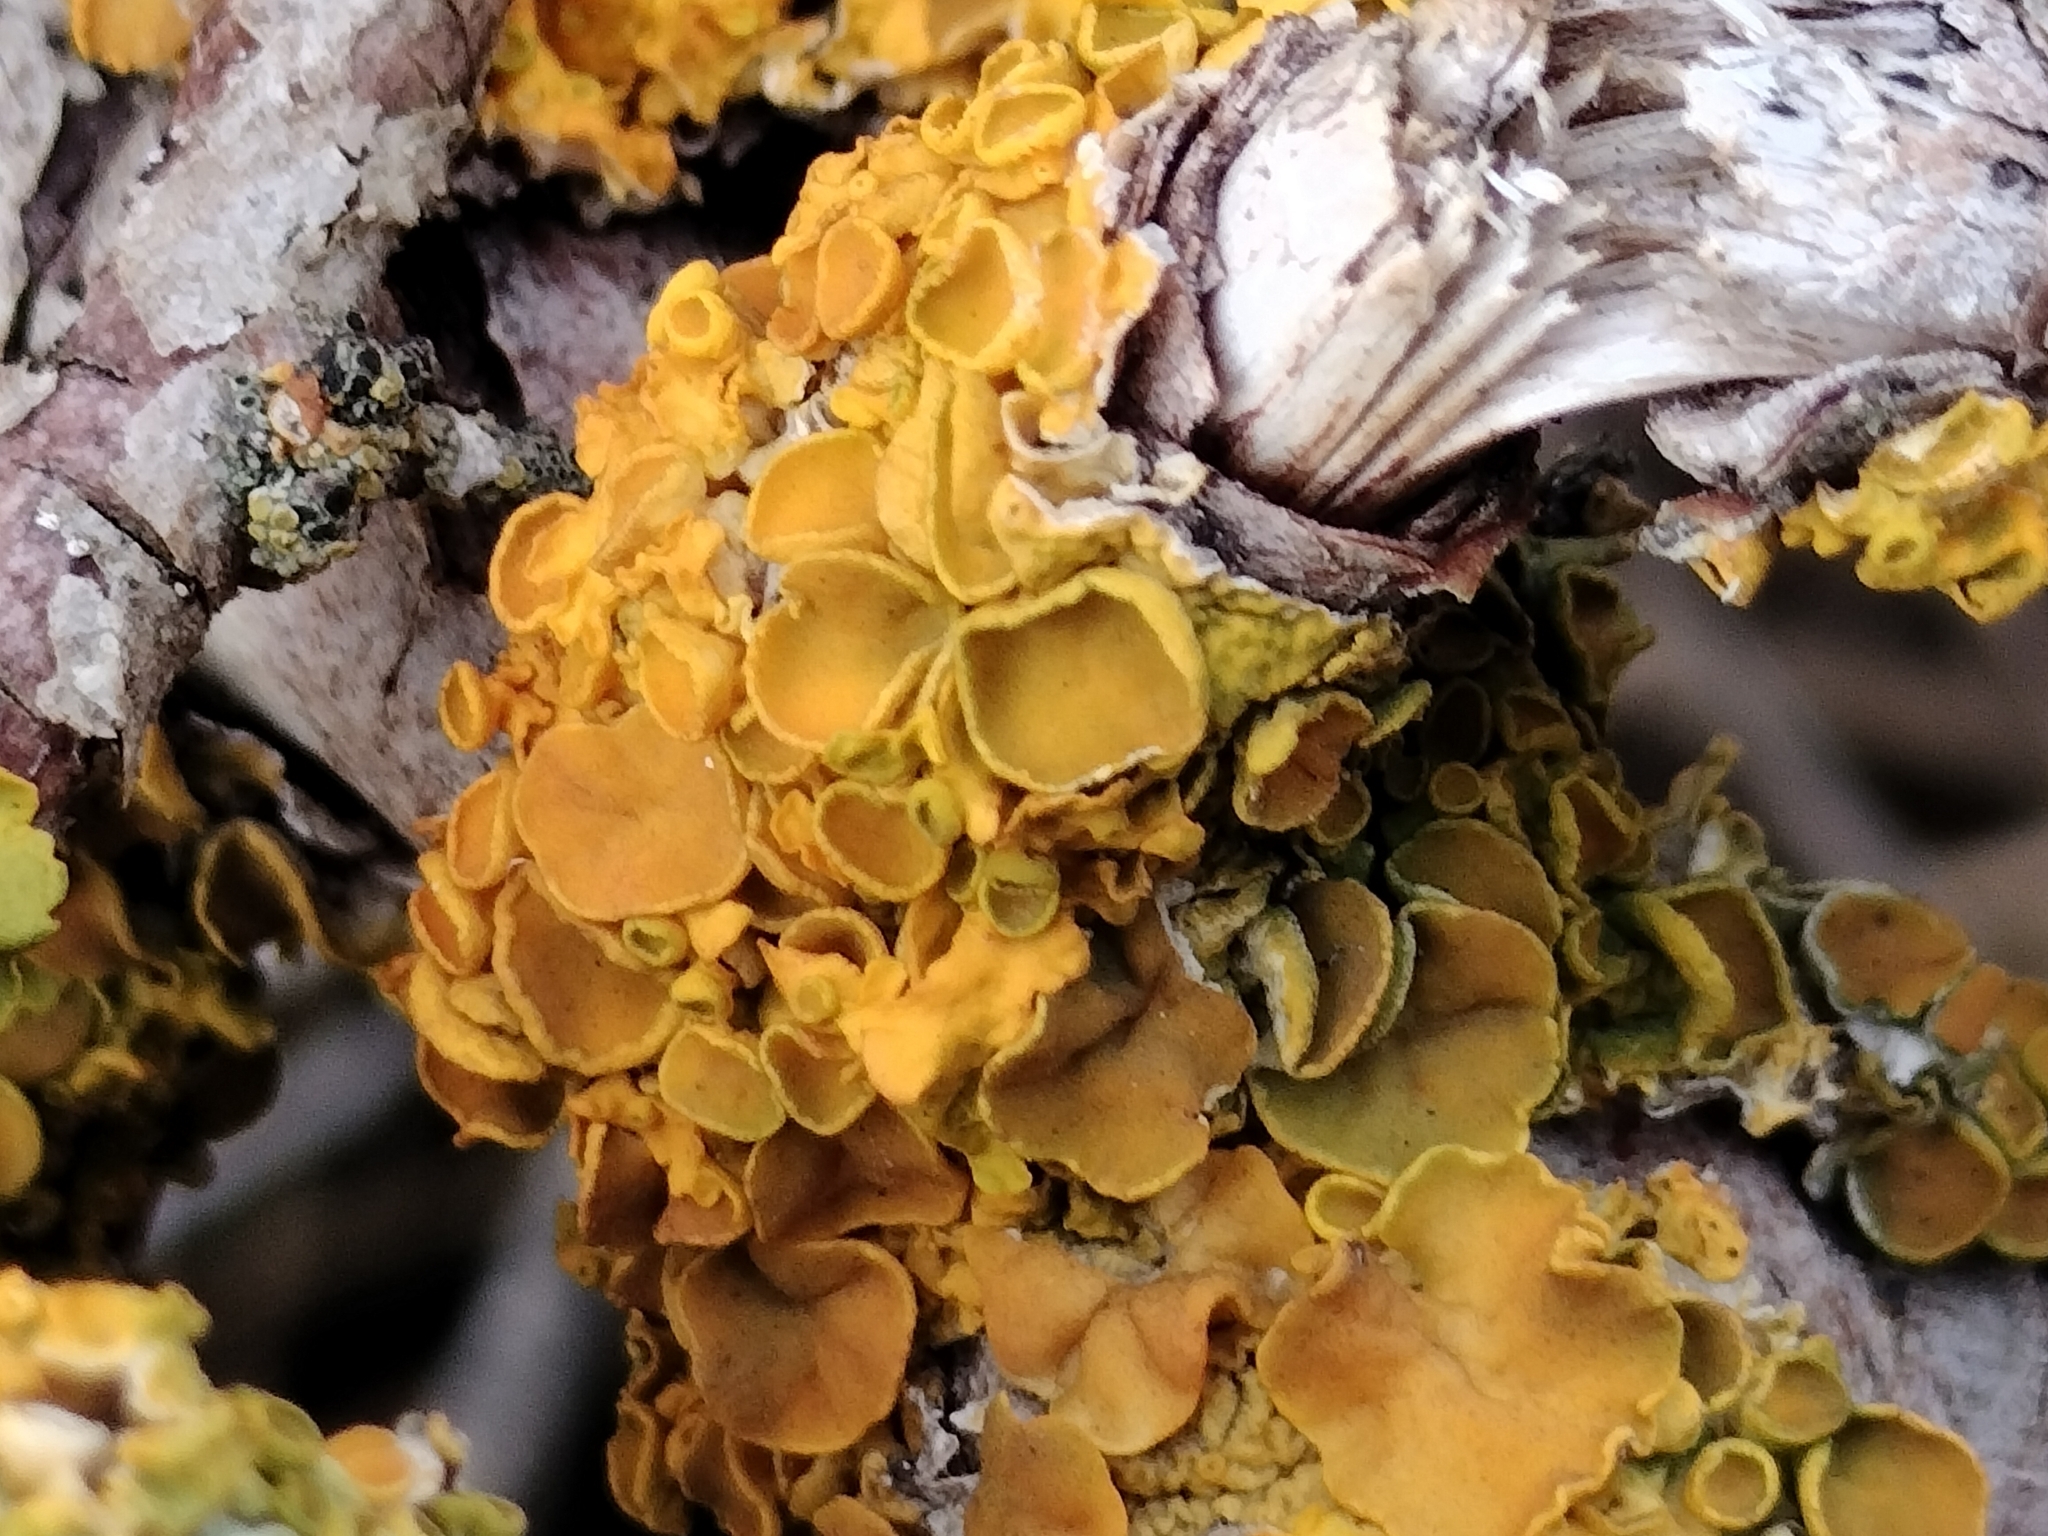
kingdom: Fungi
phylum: Ascomycota
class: Lecanoromycetes
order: Teloschistales
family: Teloschistaceae
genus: Xanthoria
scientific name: Xanthoria parietina
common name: Common orange lichen
